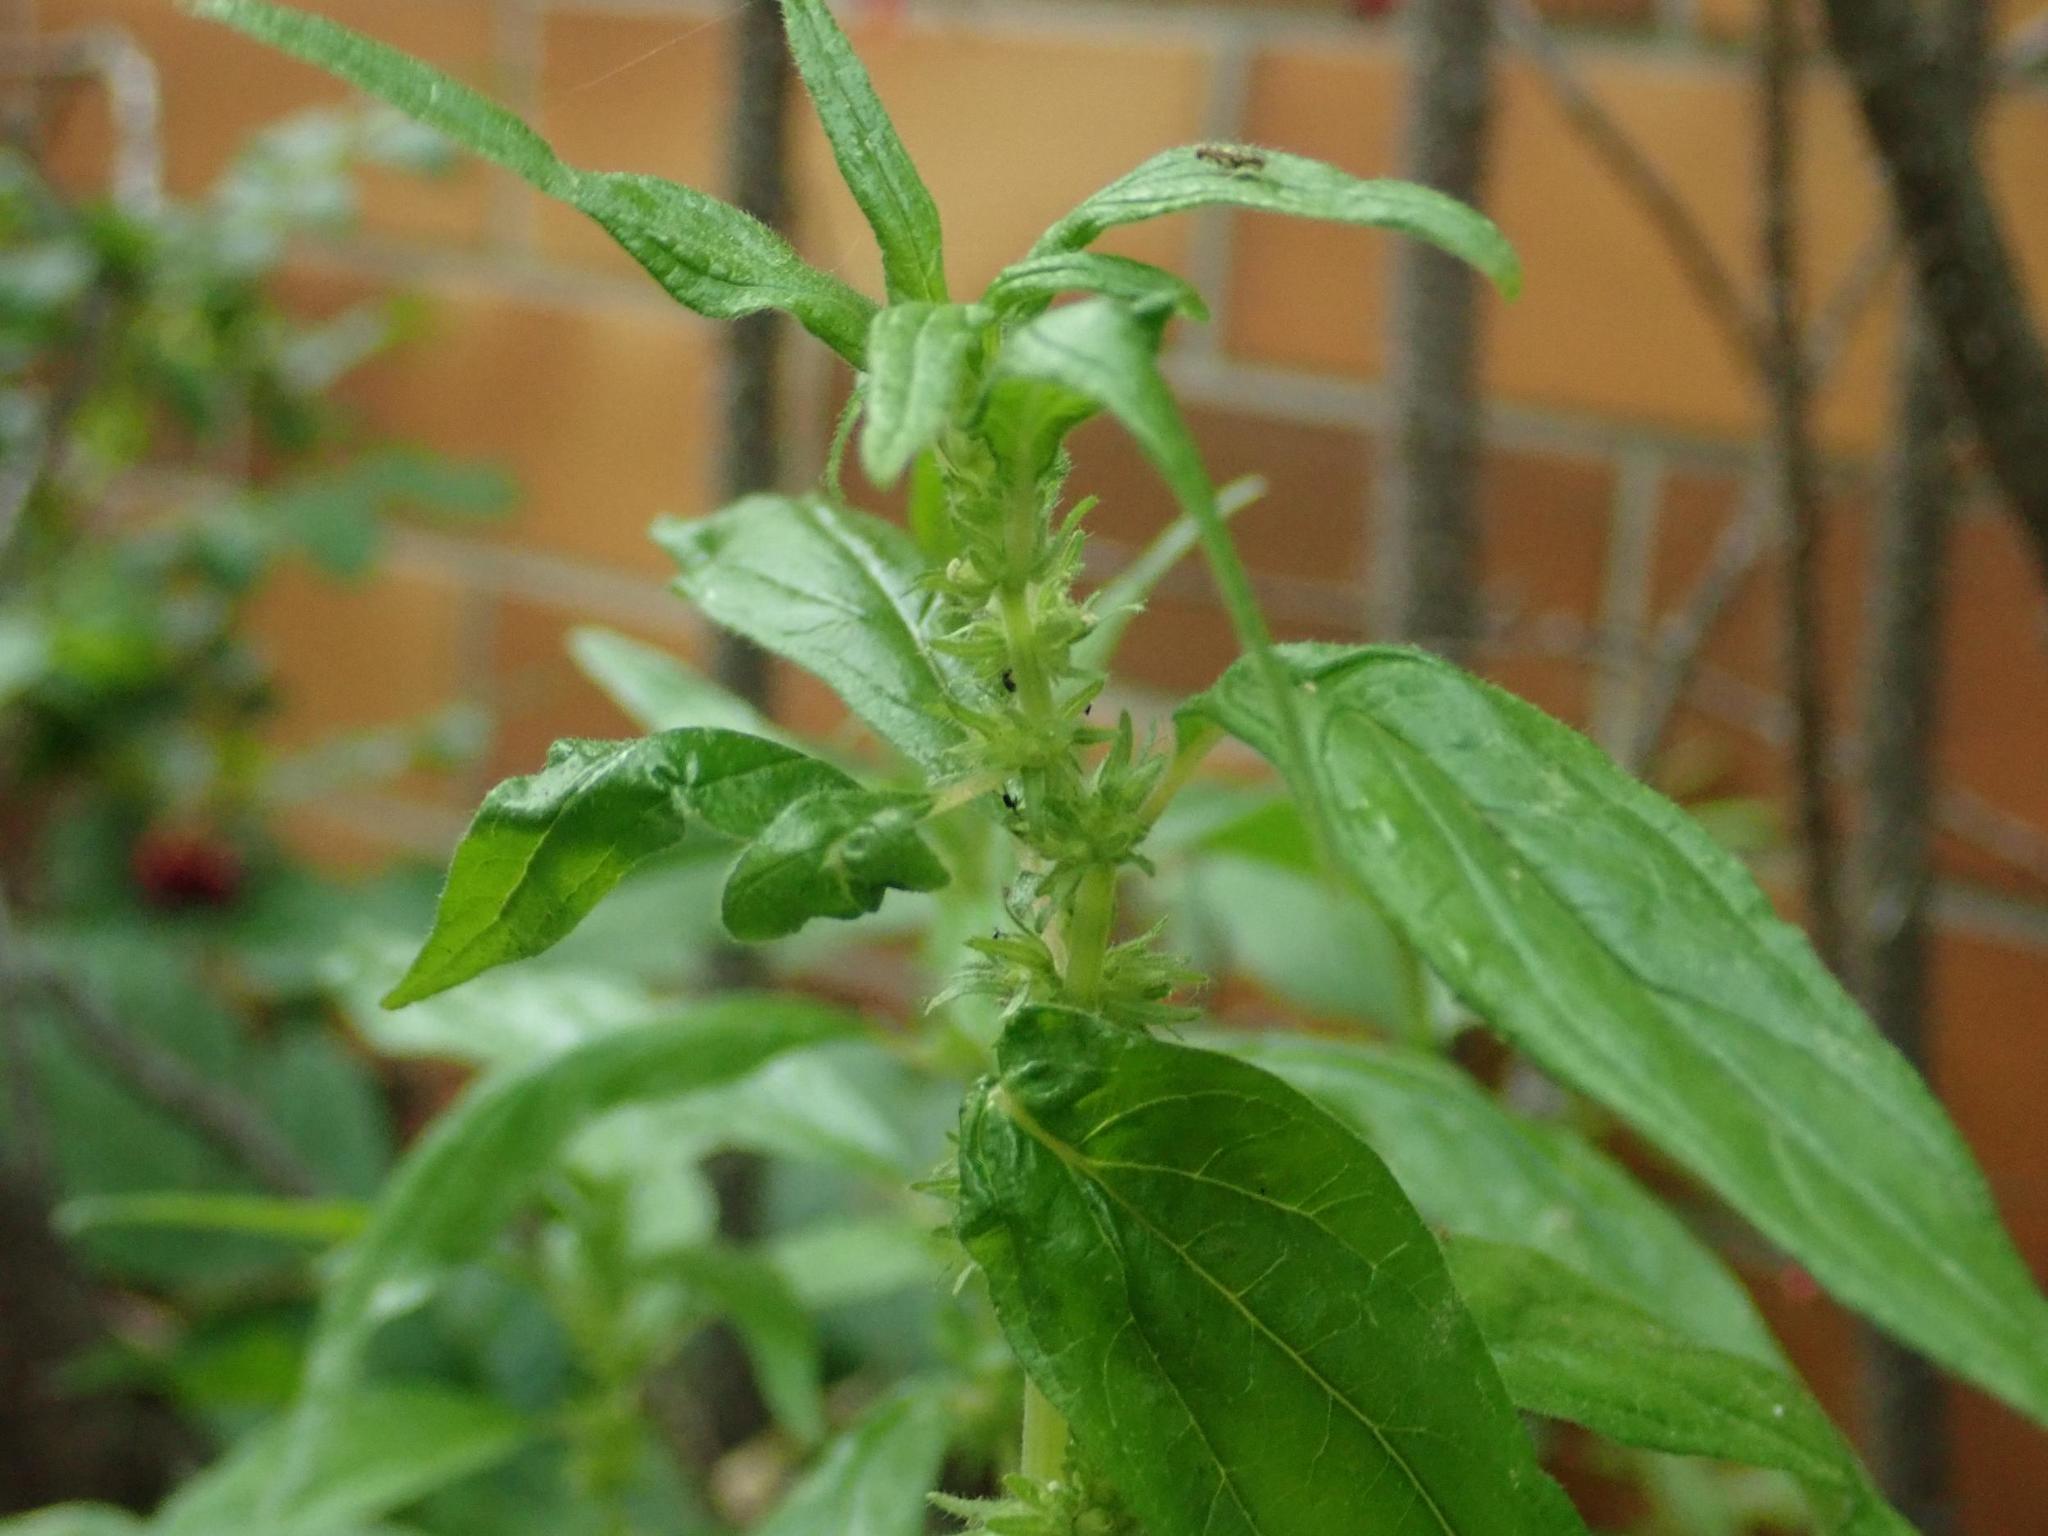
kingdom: Plantae
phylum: Tracheophyta
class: Magnoliopsida
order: Rosales
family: Urticaceae
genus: Parietaria
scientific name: Parietaria pensylvanica
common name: Pennsylvania pellitory
